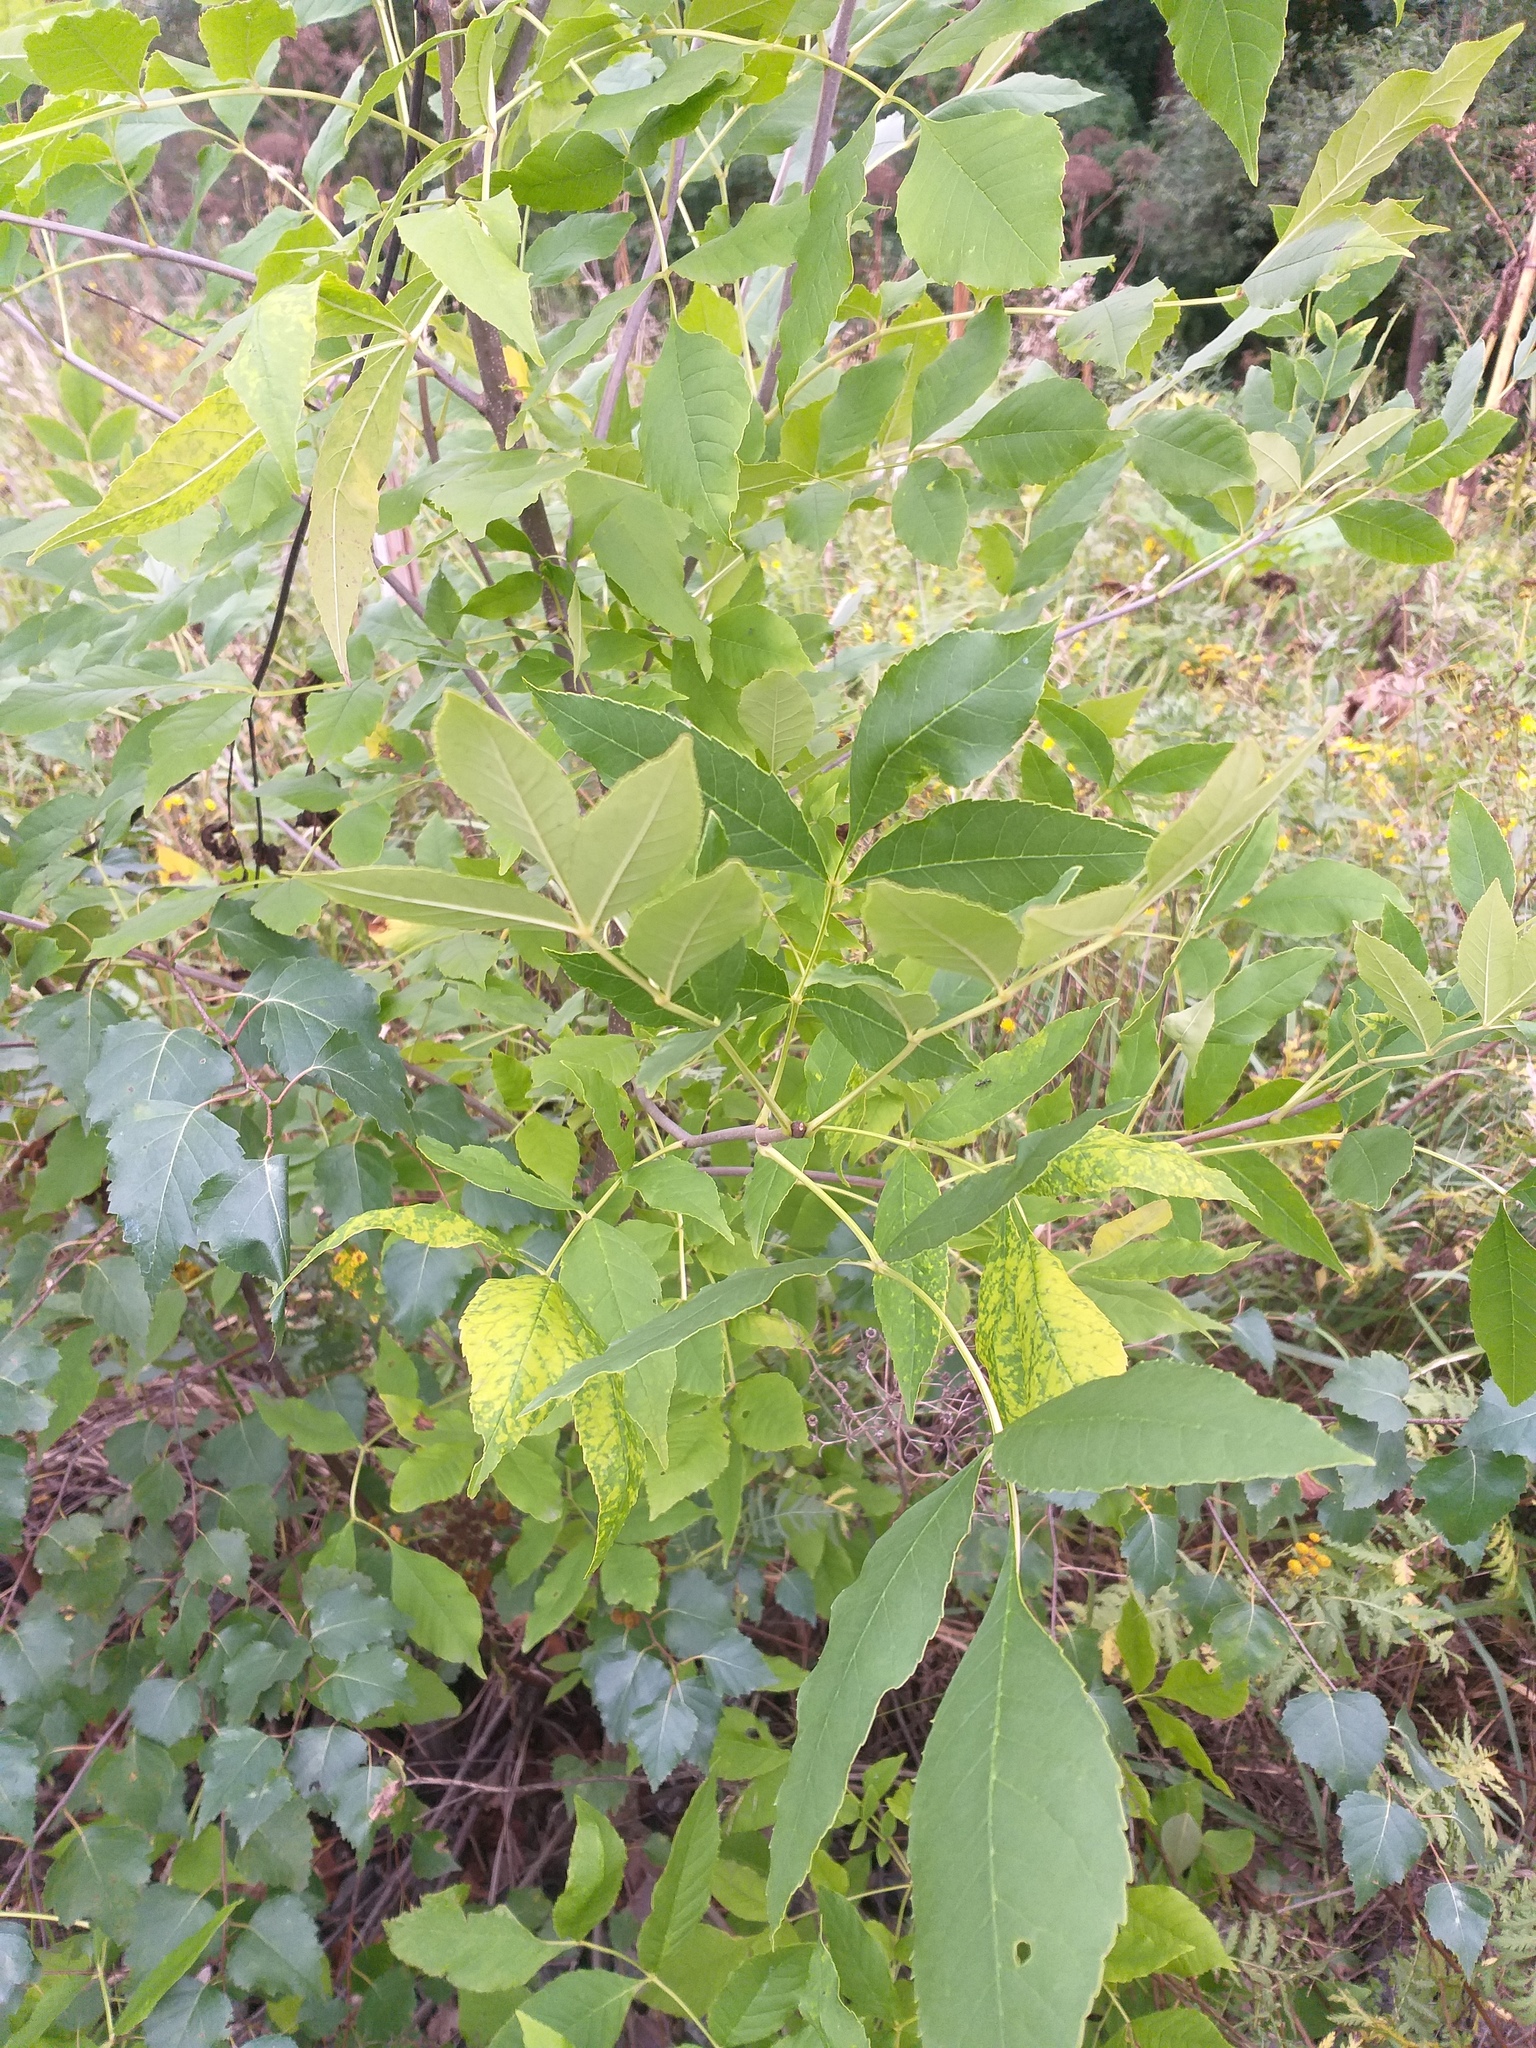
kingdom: Plantae
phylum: Tracheophyta
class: Magnoliopsida
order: Lamiales
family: Oleaceae
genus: Fraxinus
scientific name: Fraxinus pennsylvanica
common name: Green ash
